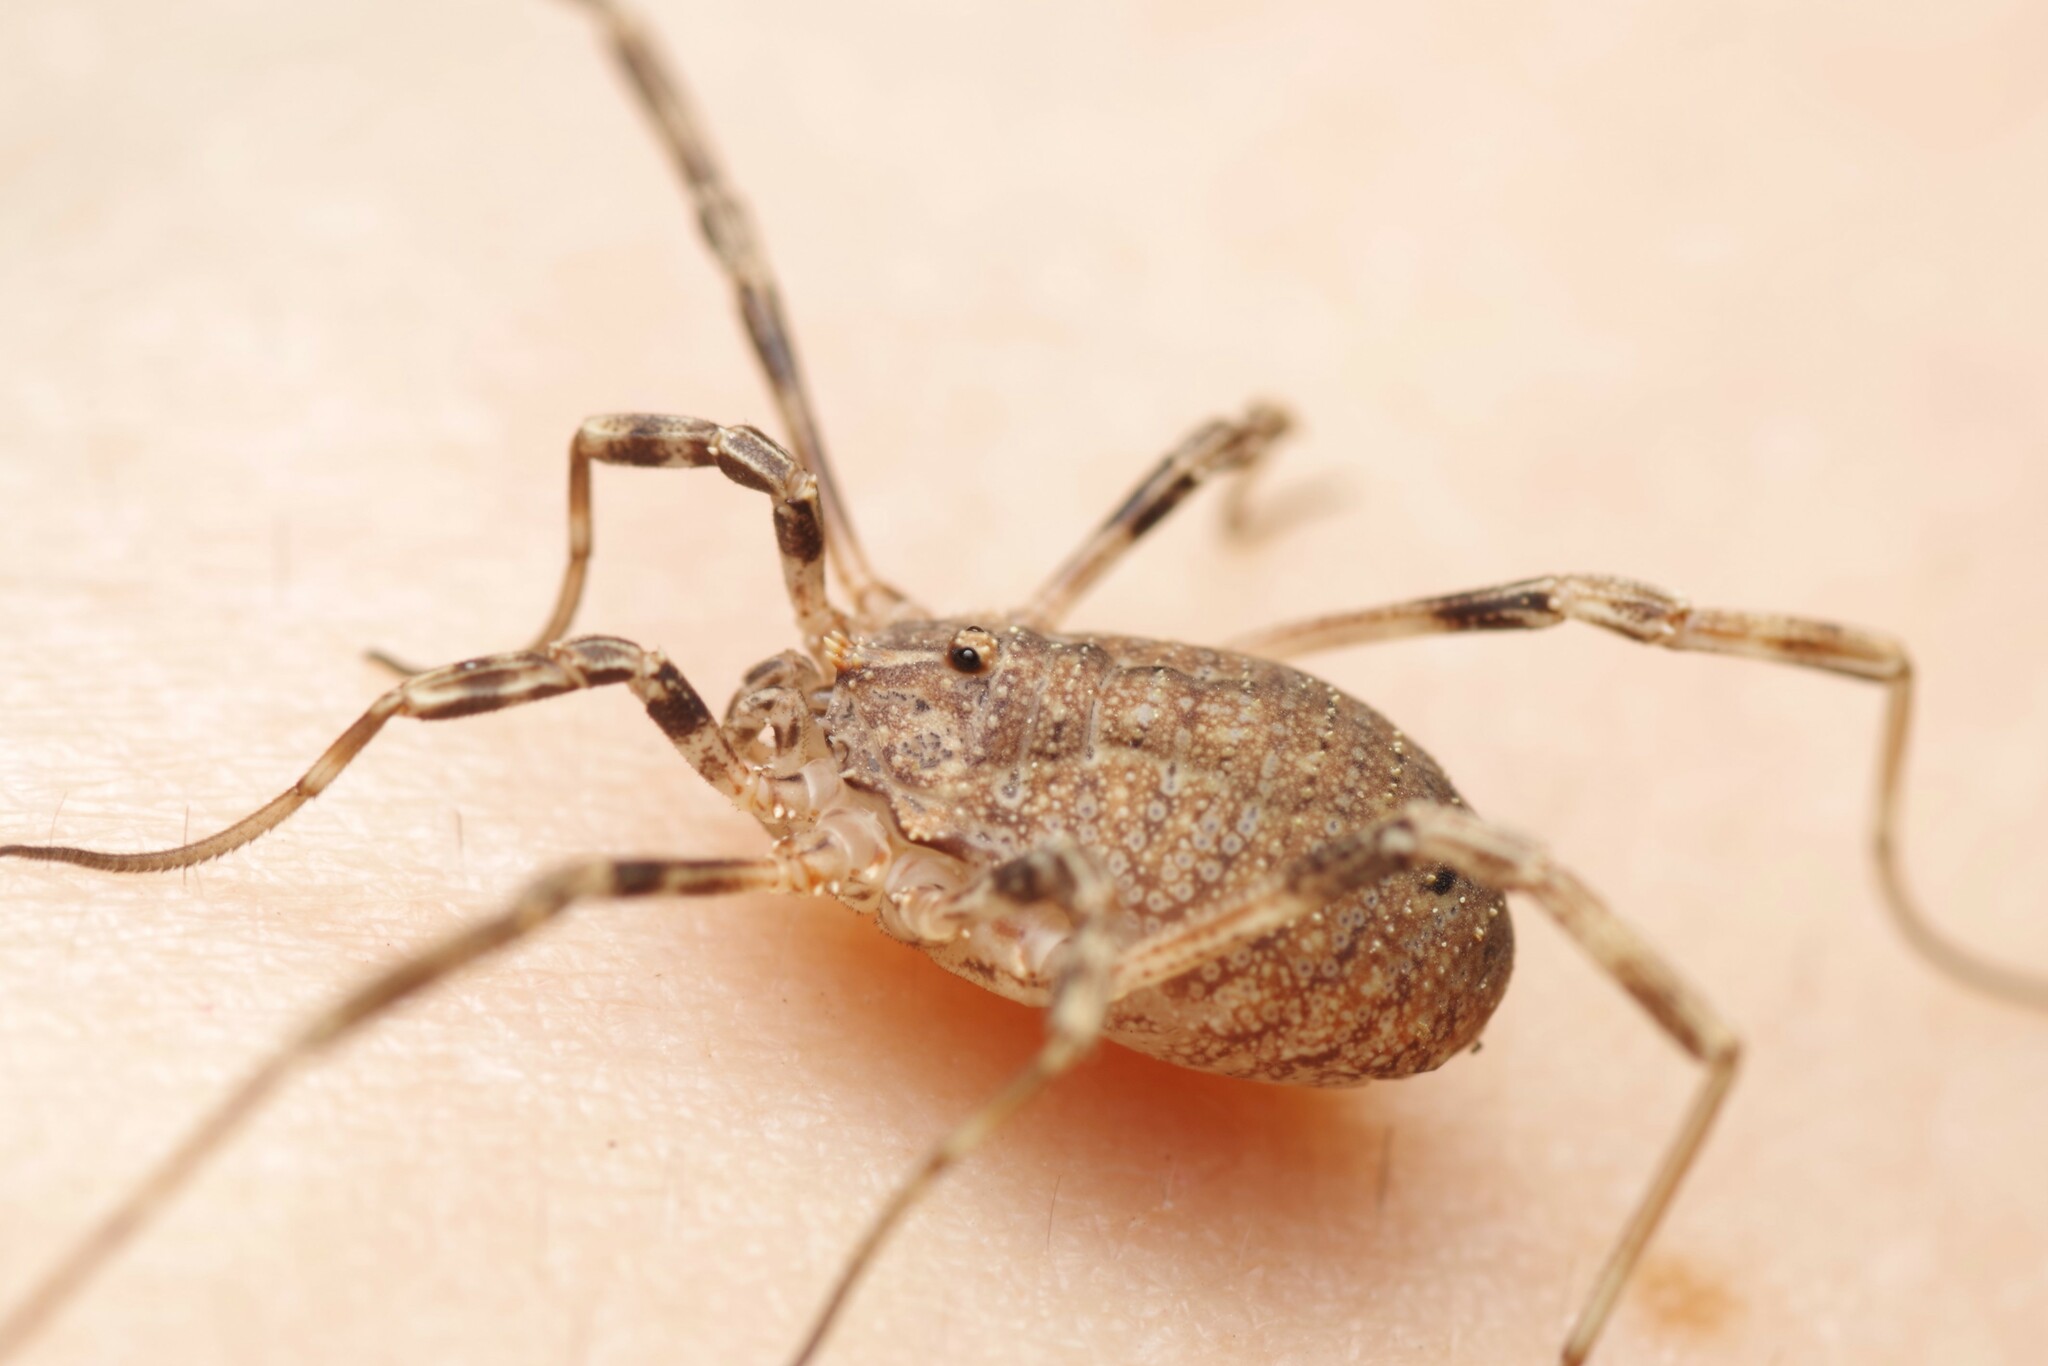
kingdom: Animalia
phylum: Arthropoda
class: Arachnida
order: Opiliones
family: Phalangiidae
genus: Odiellus
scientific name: Odiellus spinosus
